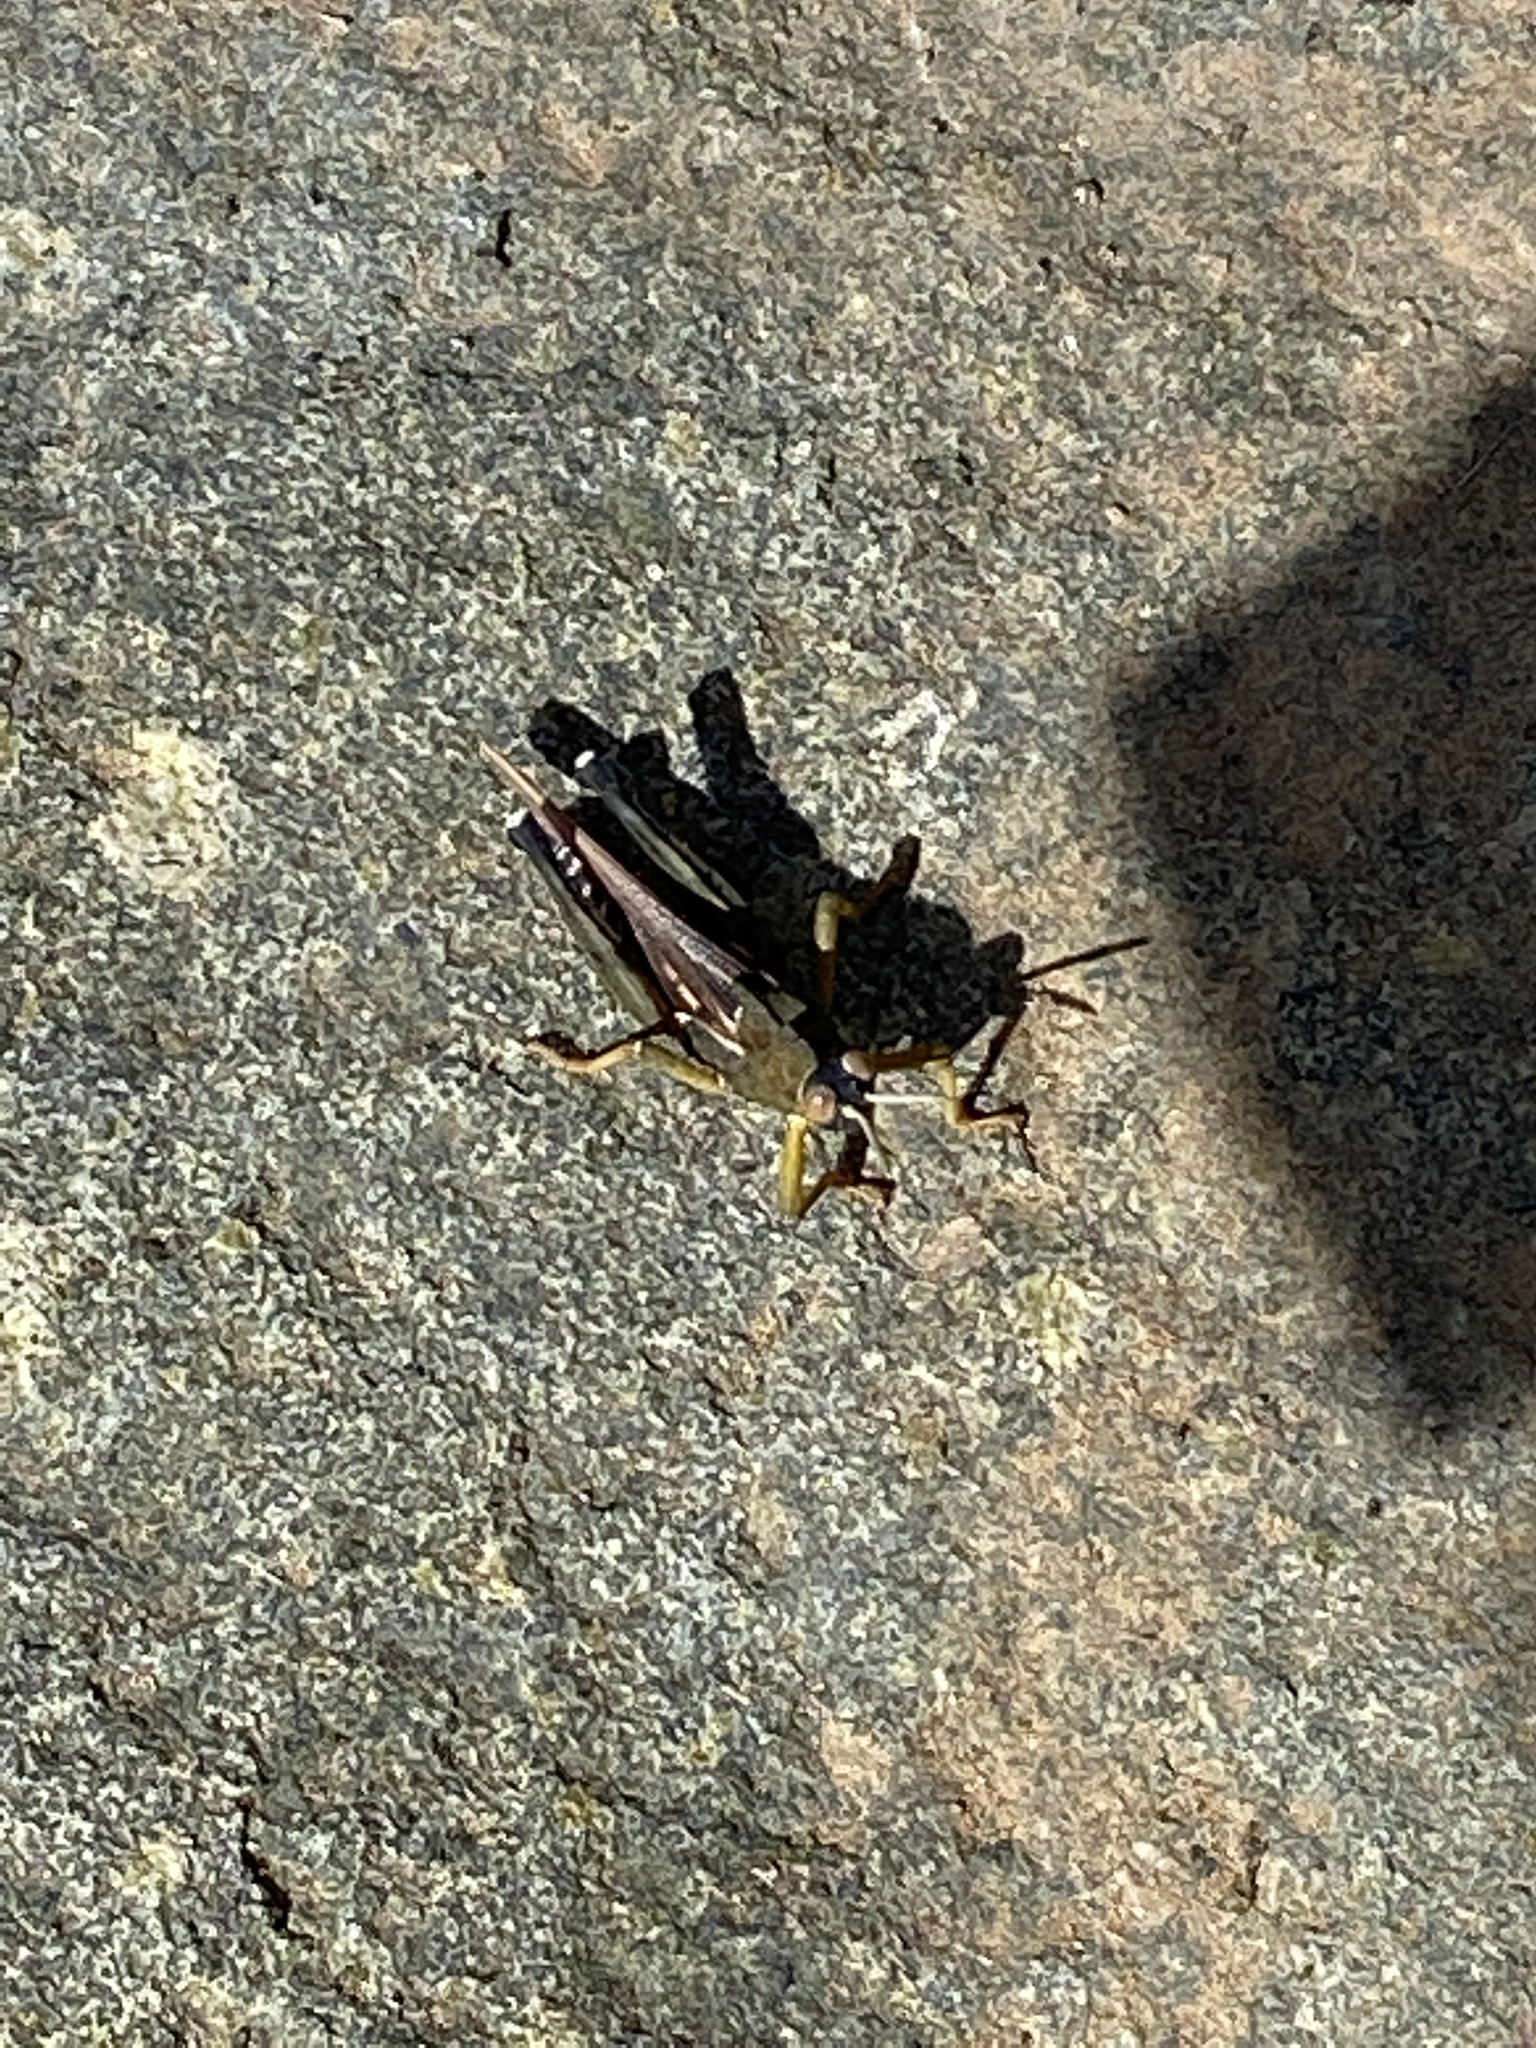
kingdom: Animalia
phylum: Arthropoda
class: Insecta
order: Orthoptera
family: Dericorythidae
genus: Dericorys
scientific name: Dericorys lobata
